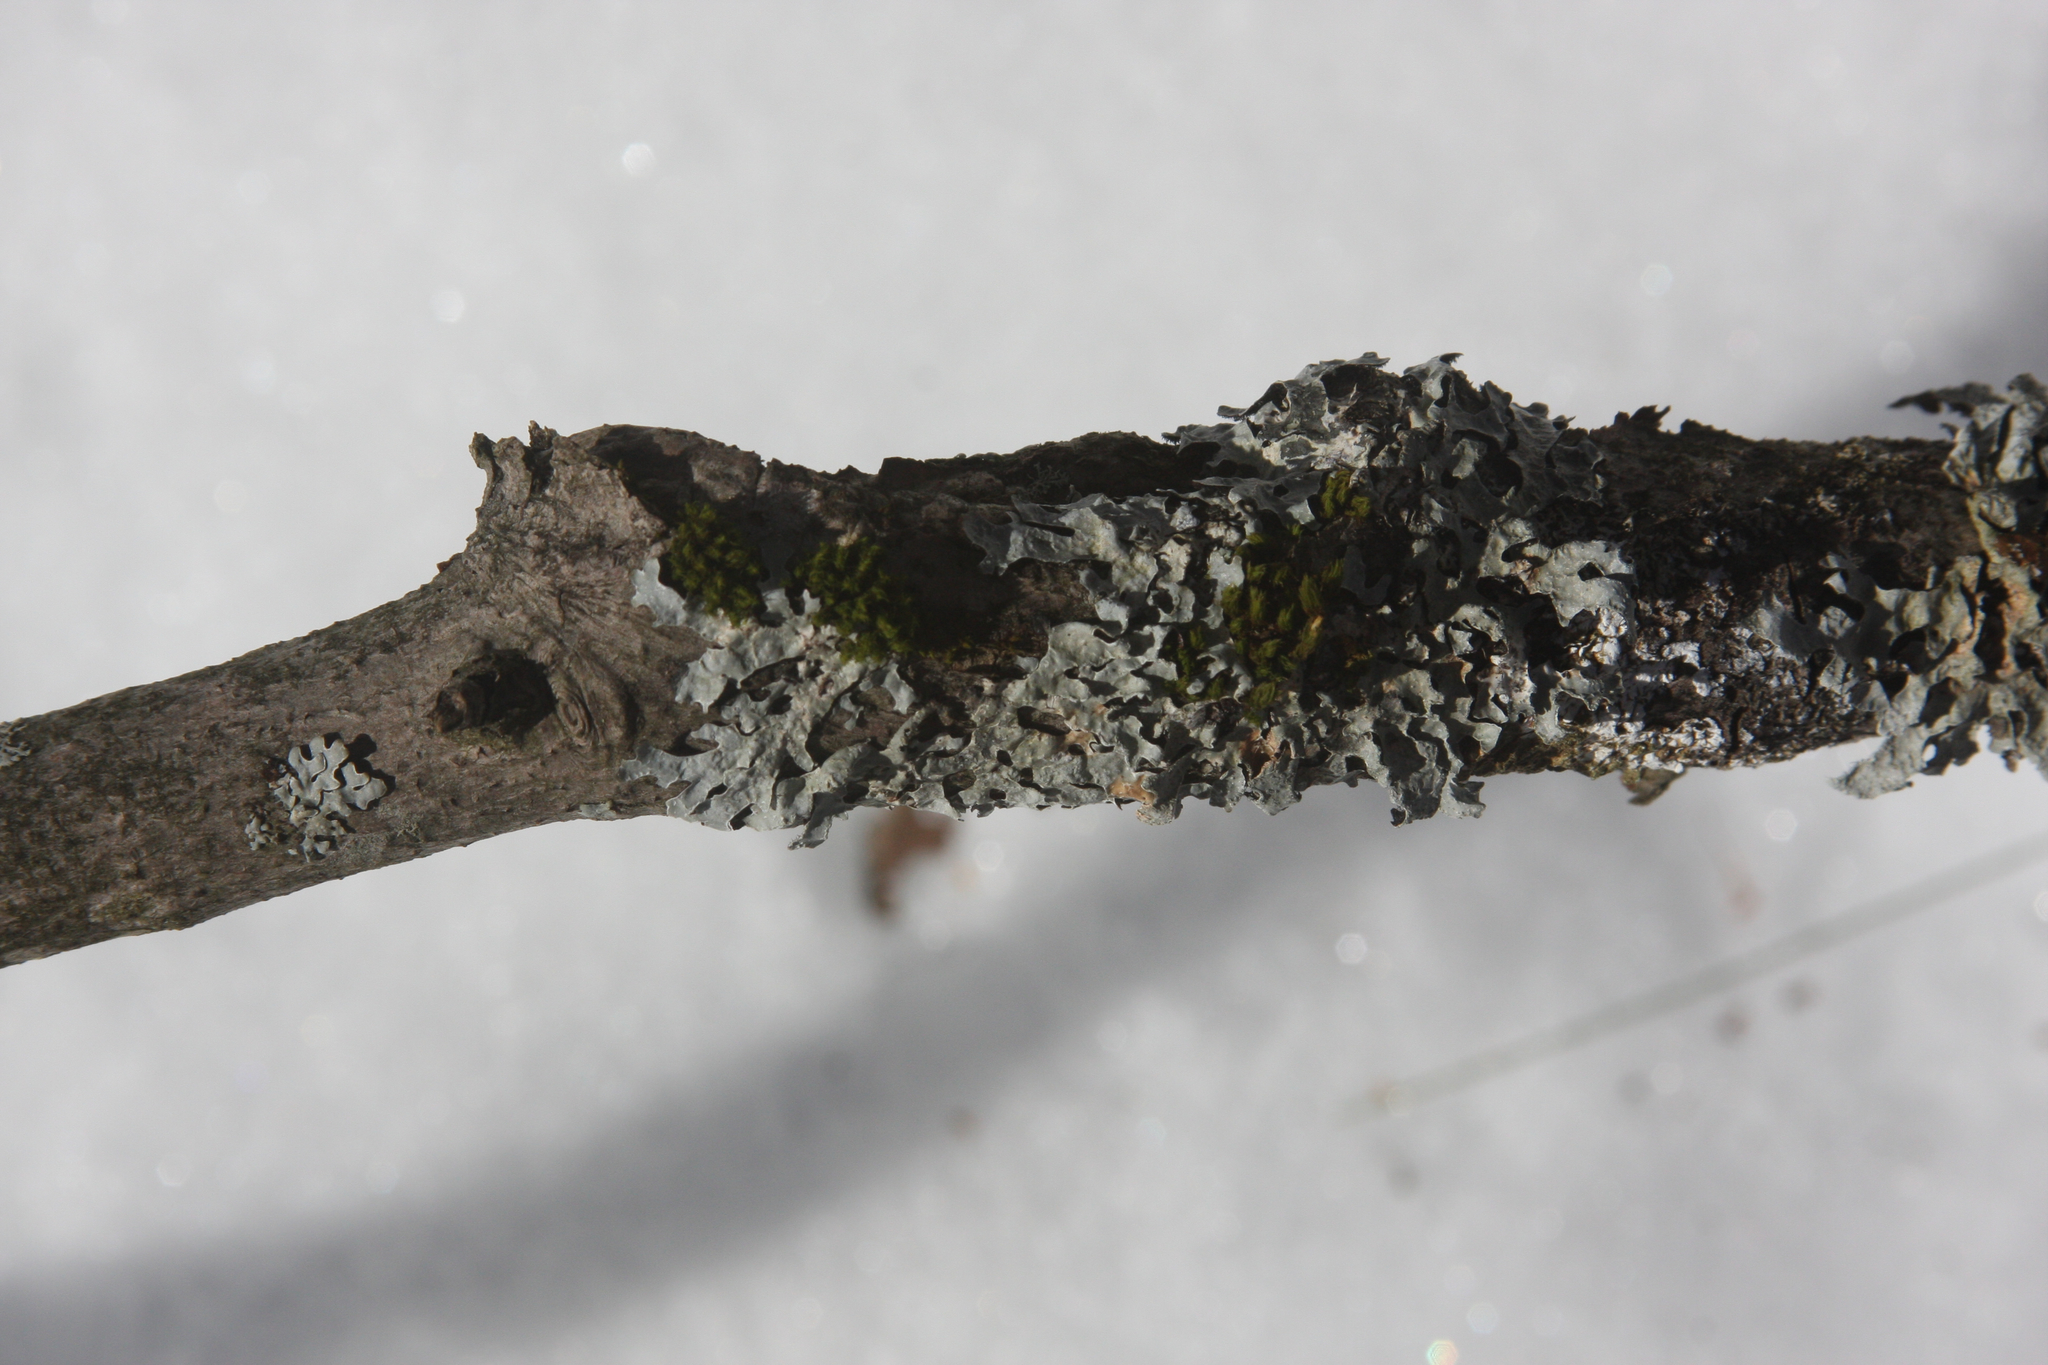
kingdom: Fungi
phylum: Ascomycota
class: Lecanoromycetes
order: Lecanorales
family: Parmeliaceae
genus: Parmelia
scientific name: Parmelia sulcata
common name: Netted shield lichen
